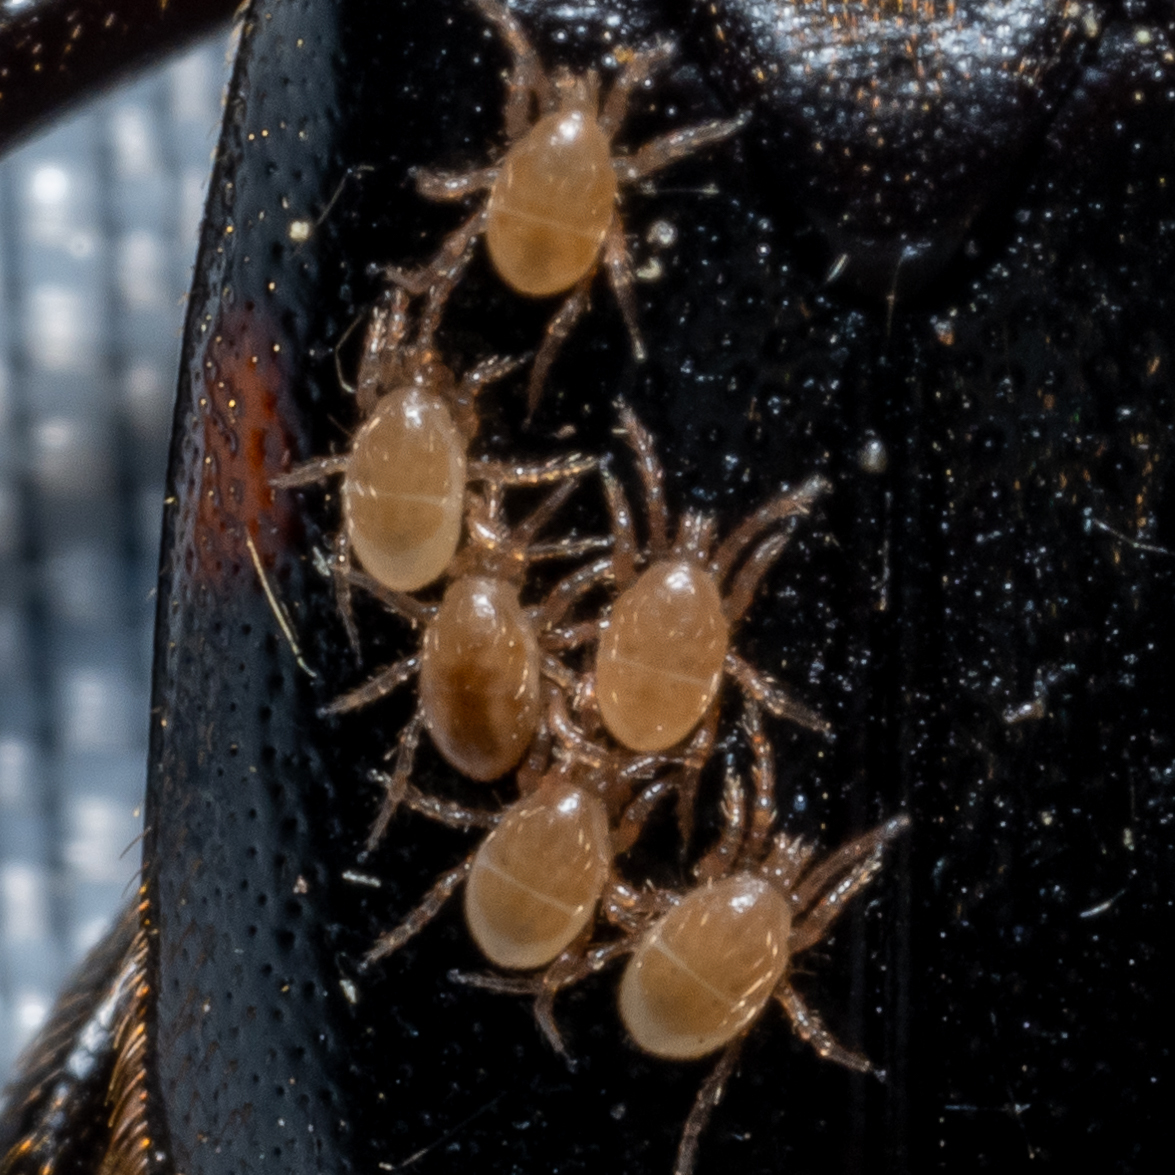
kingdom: Animalia
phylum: Arthropoda
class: Arachnida
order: Mesostigmata
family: Parasitidae
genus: Poecilochirus
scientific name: Poecilochirus
